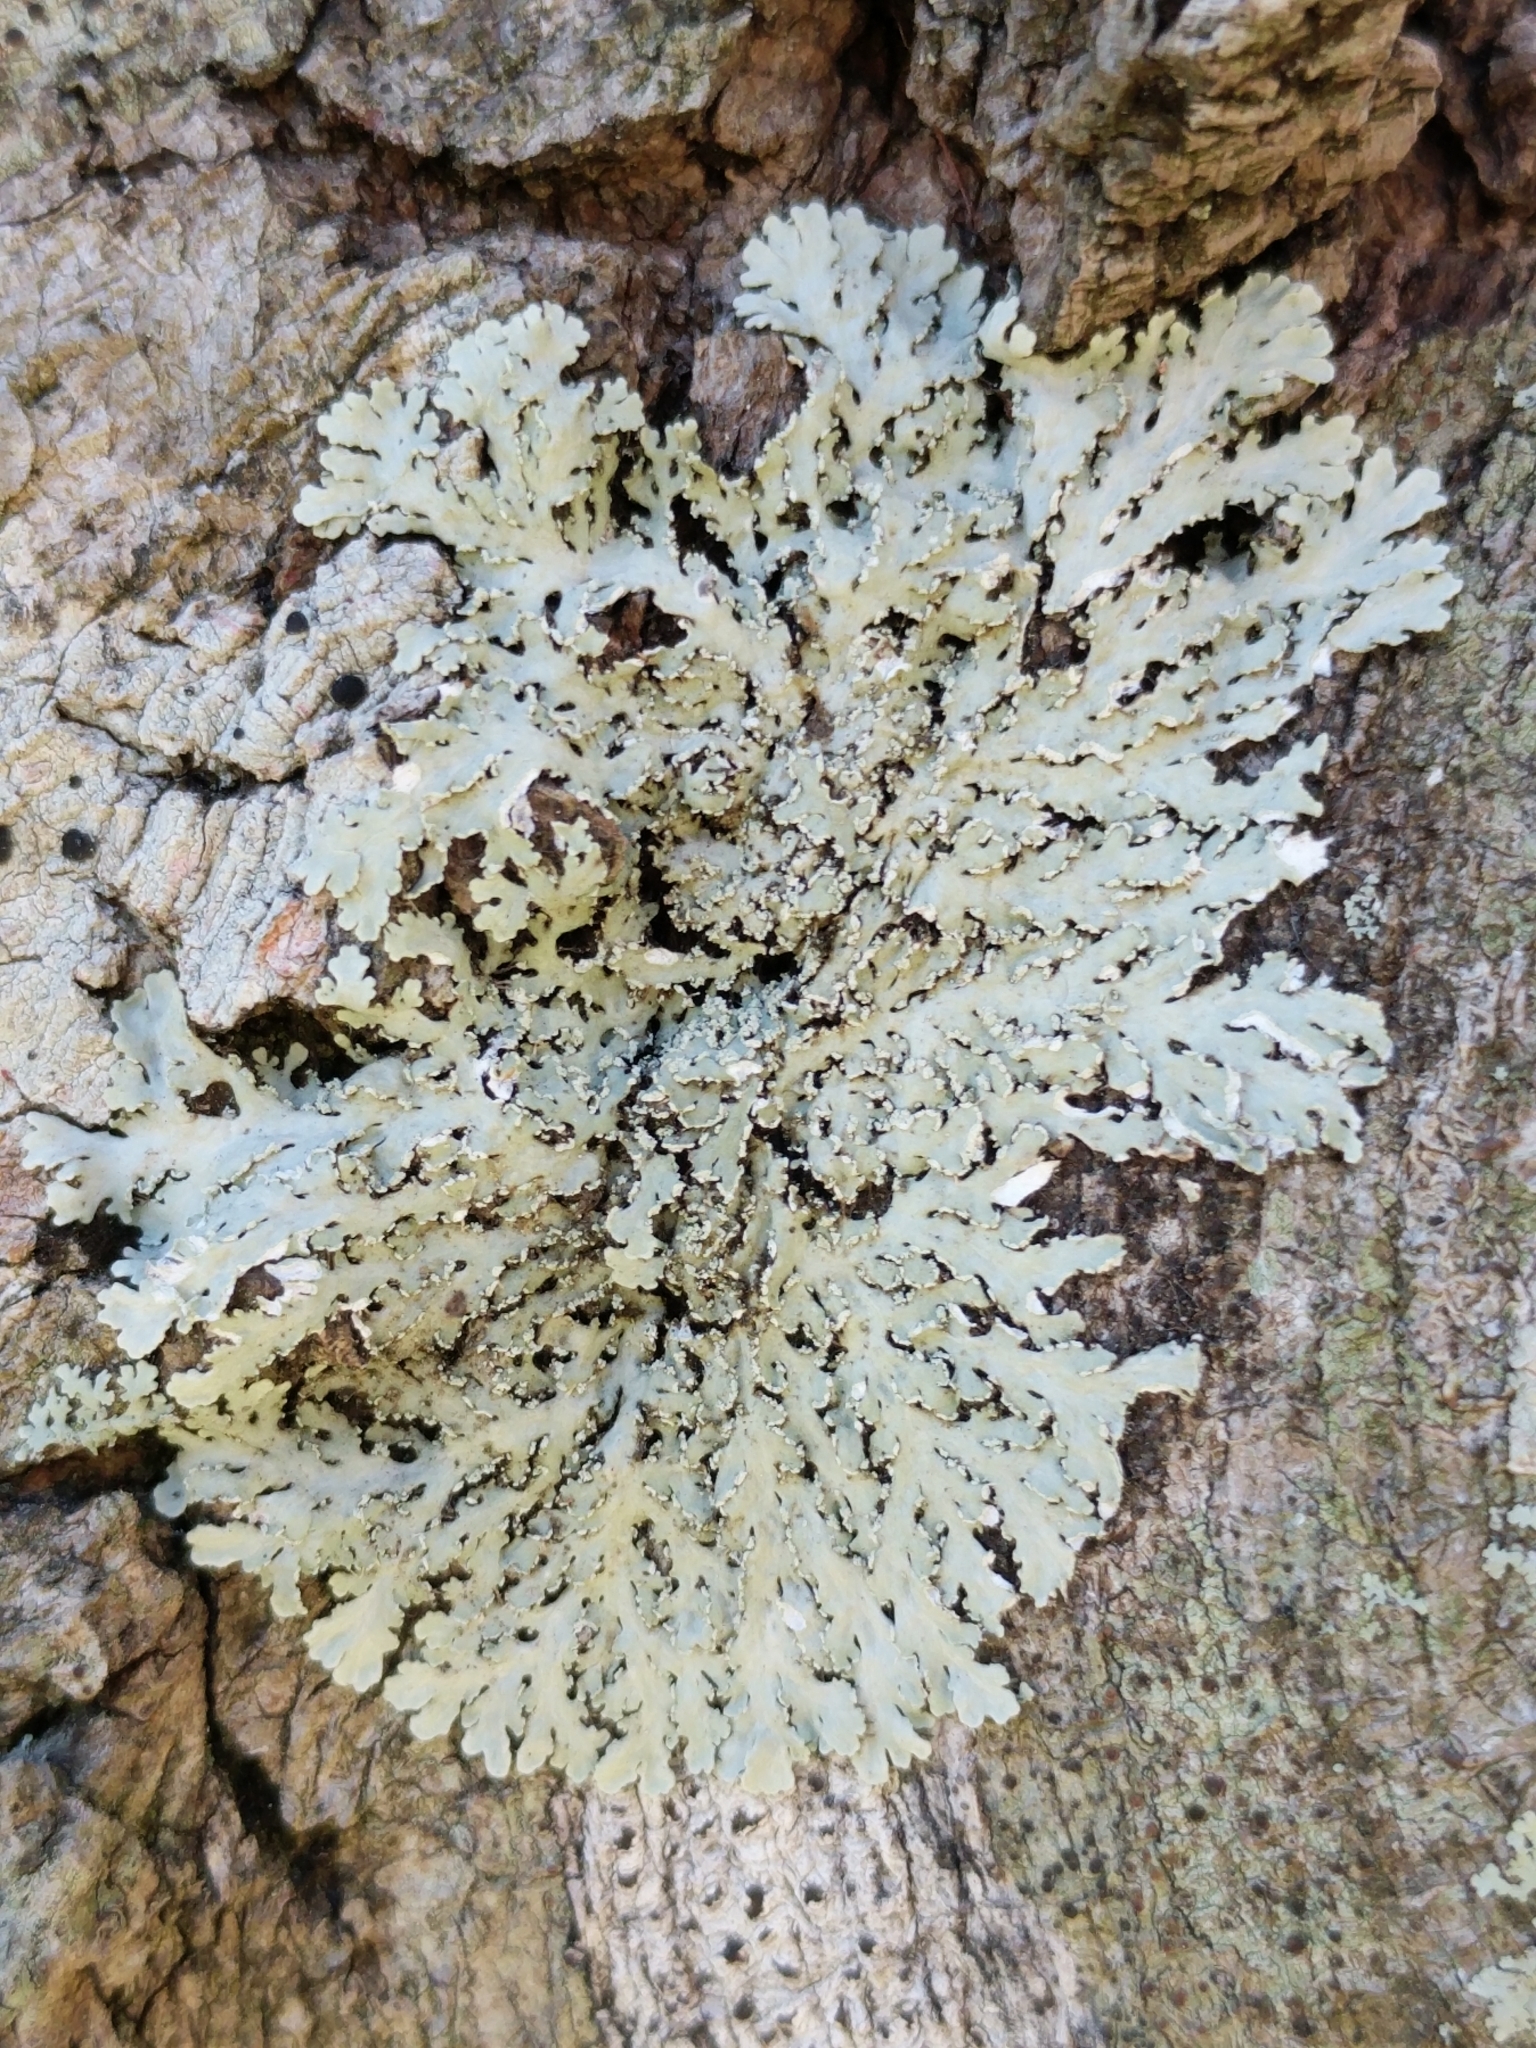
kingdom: Fungi
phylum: Ascomycota
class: Lecanoromycetes
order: Caliciales
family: Physciaceae
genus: Heterodermia
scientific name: Heterodermia speciosa
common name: Powdered fringe lichen
